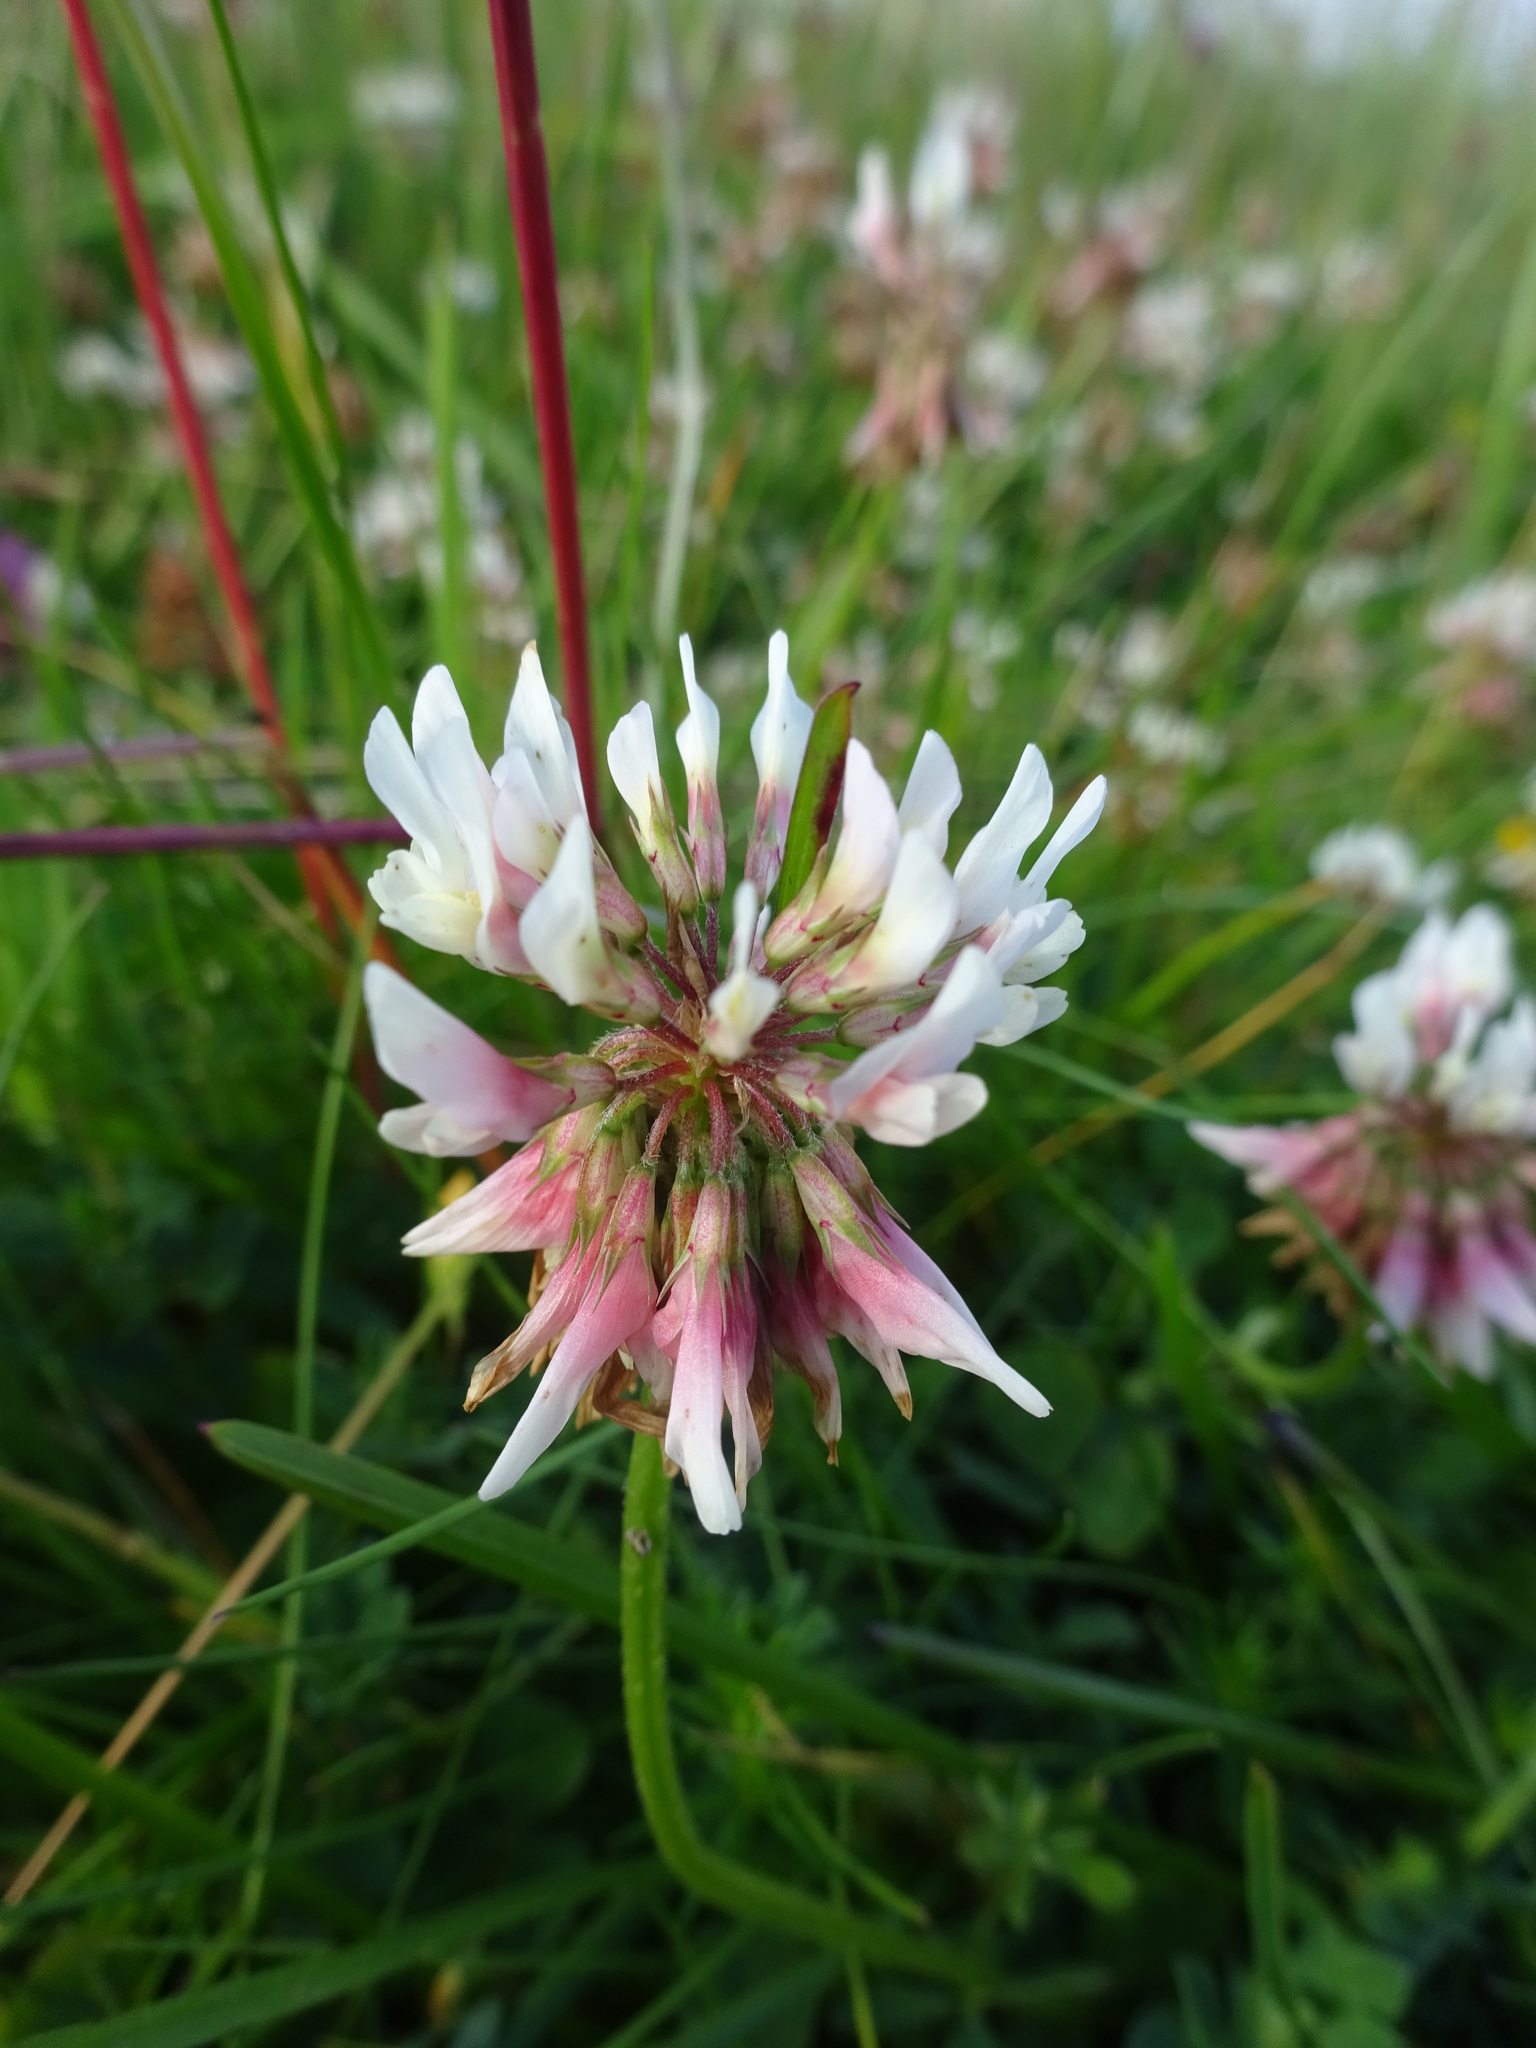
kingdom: Plantae
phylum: Tracheophyta
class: Magnoliopsida
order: Fabales
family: Fabaceae
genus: Trifolium
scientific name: Trifolium repens
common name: White clover
